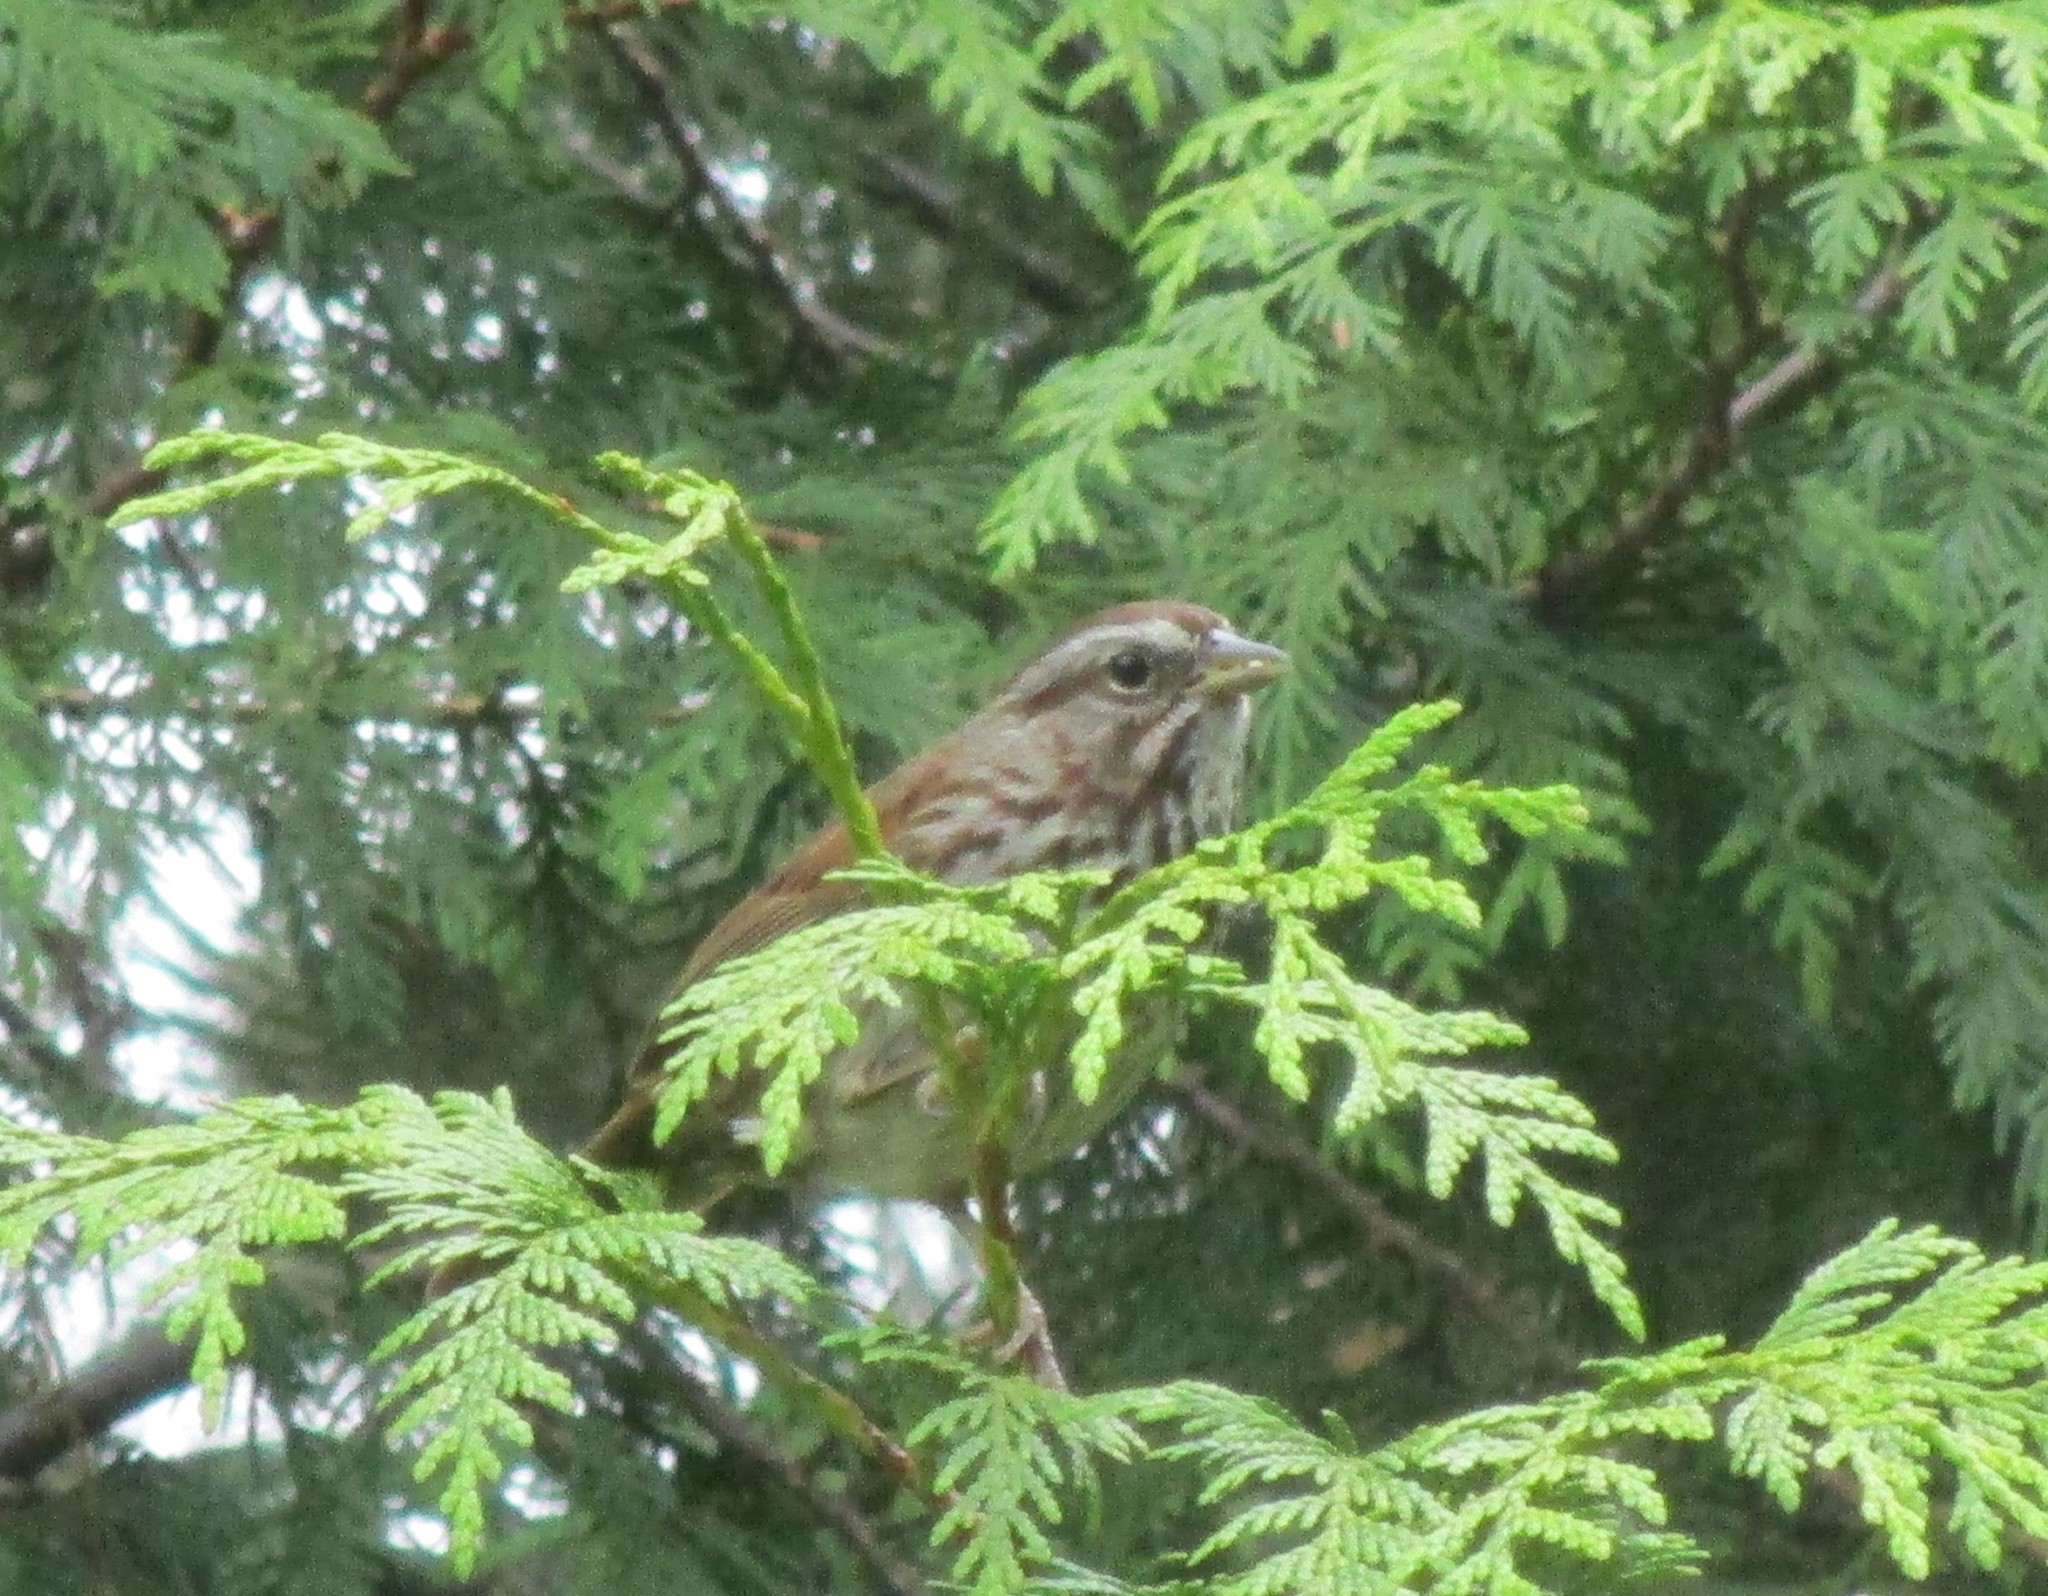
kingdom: Animalia
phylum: Chordata
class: Aves
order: Passeriformes
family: Passerellidae
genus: Melospiza
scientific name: Melospiza melodia
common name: Song sparrow
